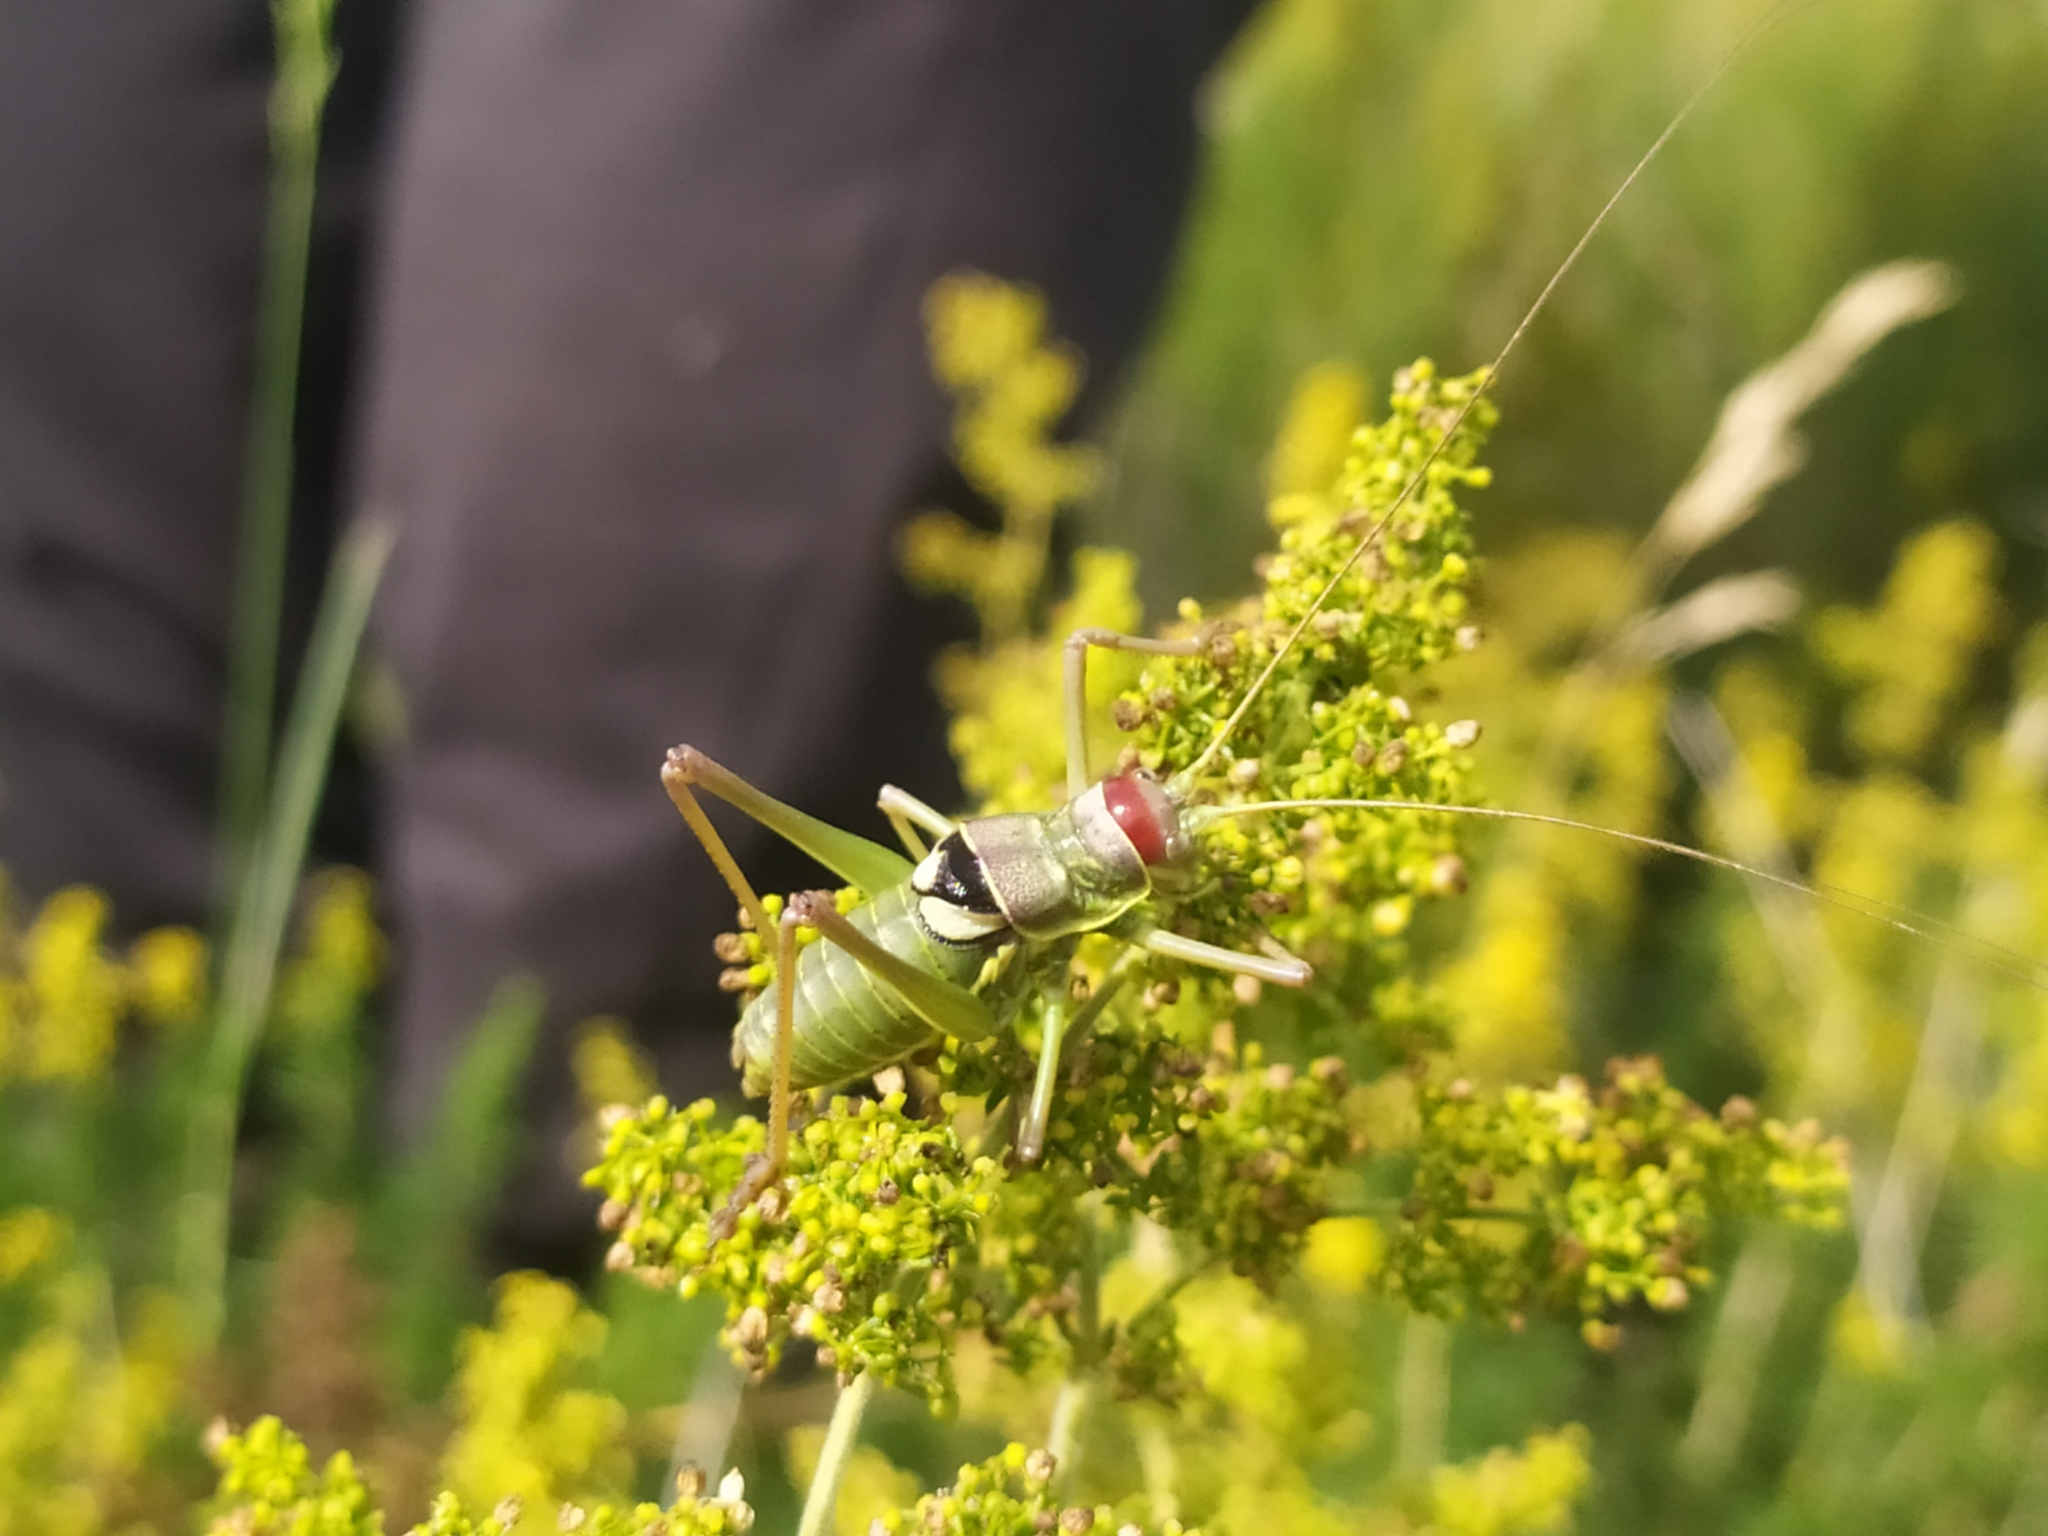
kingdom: Animalia
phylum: Arthropoda
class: Insecta
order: Orthoptera
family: Tettigoniidae
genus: Dinarippiger
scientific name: Dinarippiger discoidalis
